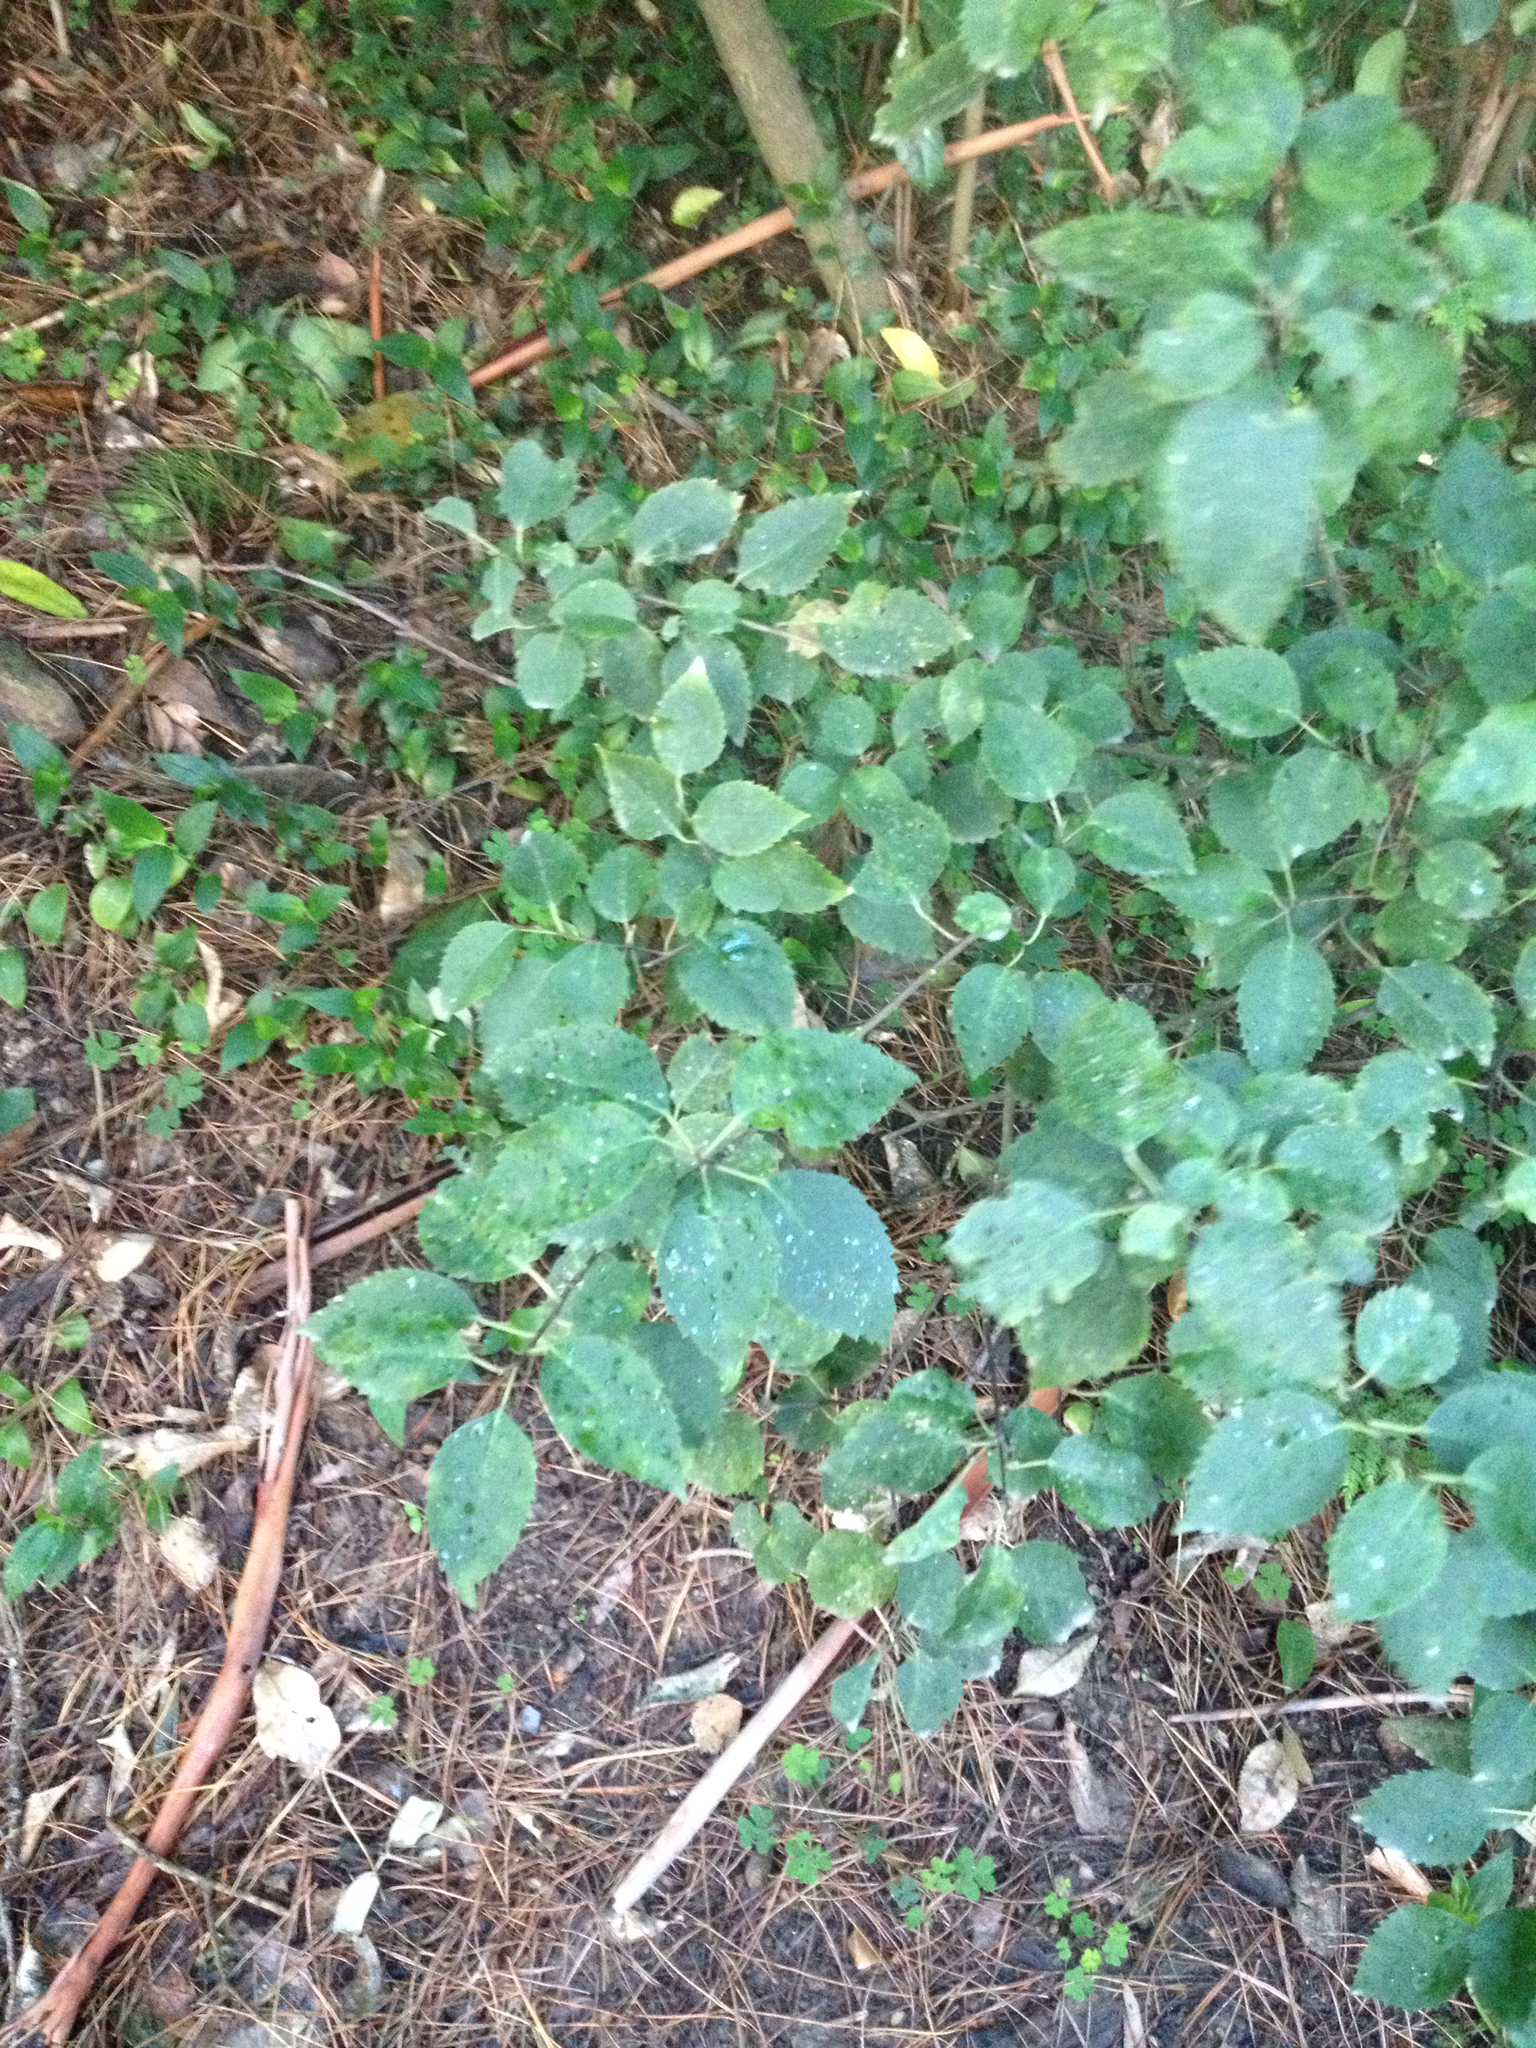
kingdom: Plantae
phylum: Tracheophyta
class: Magnoliopsida
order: Malvales
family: Malvaceae
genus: Hoheria
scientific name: Hoheria populnea
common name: Lacebark
